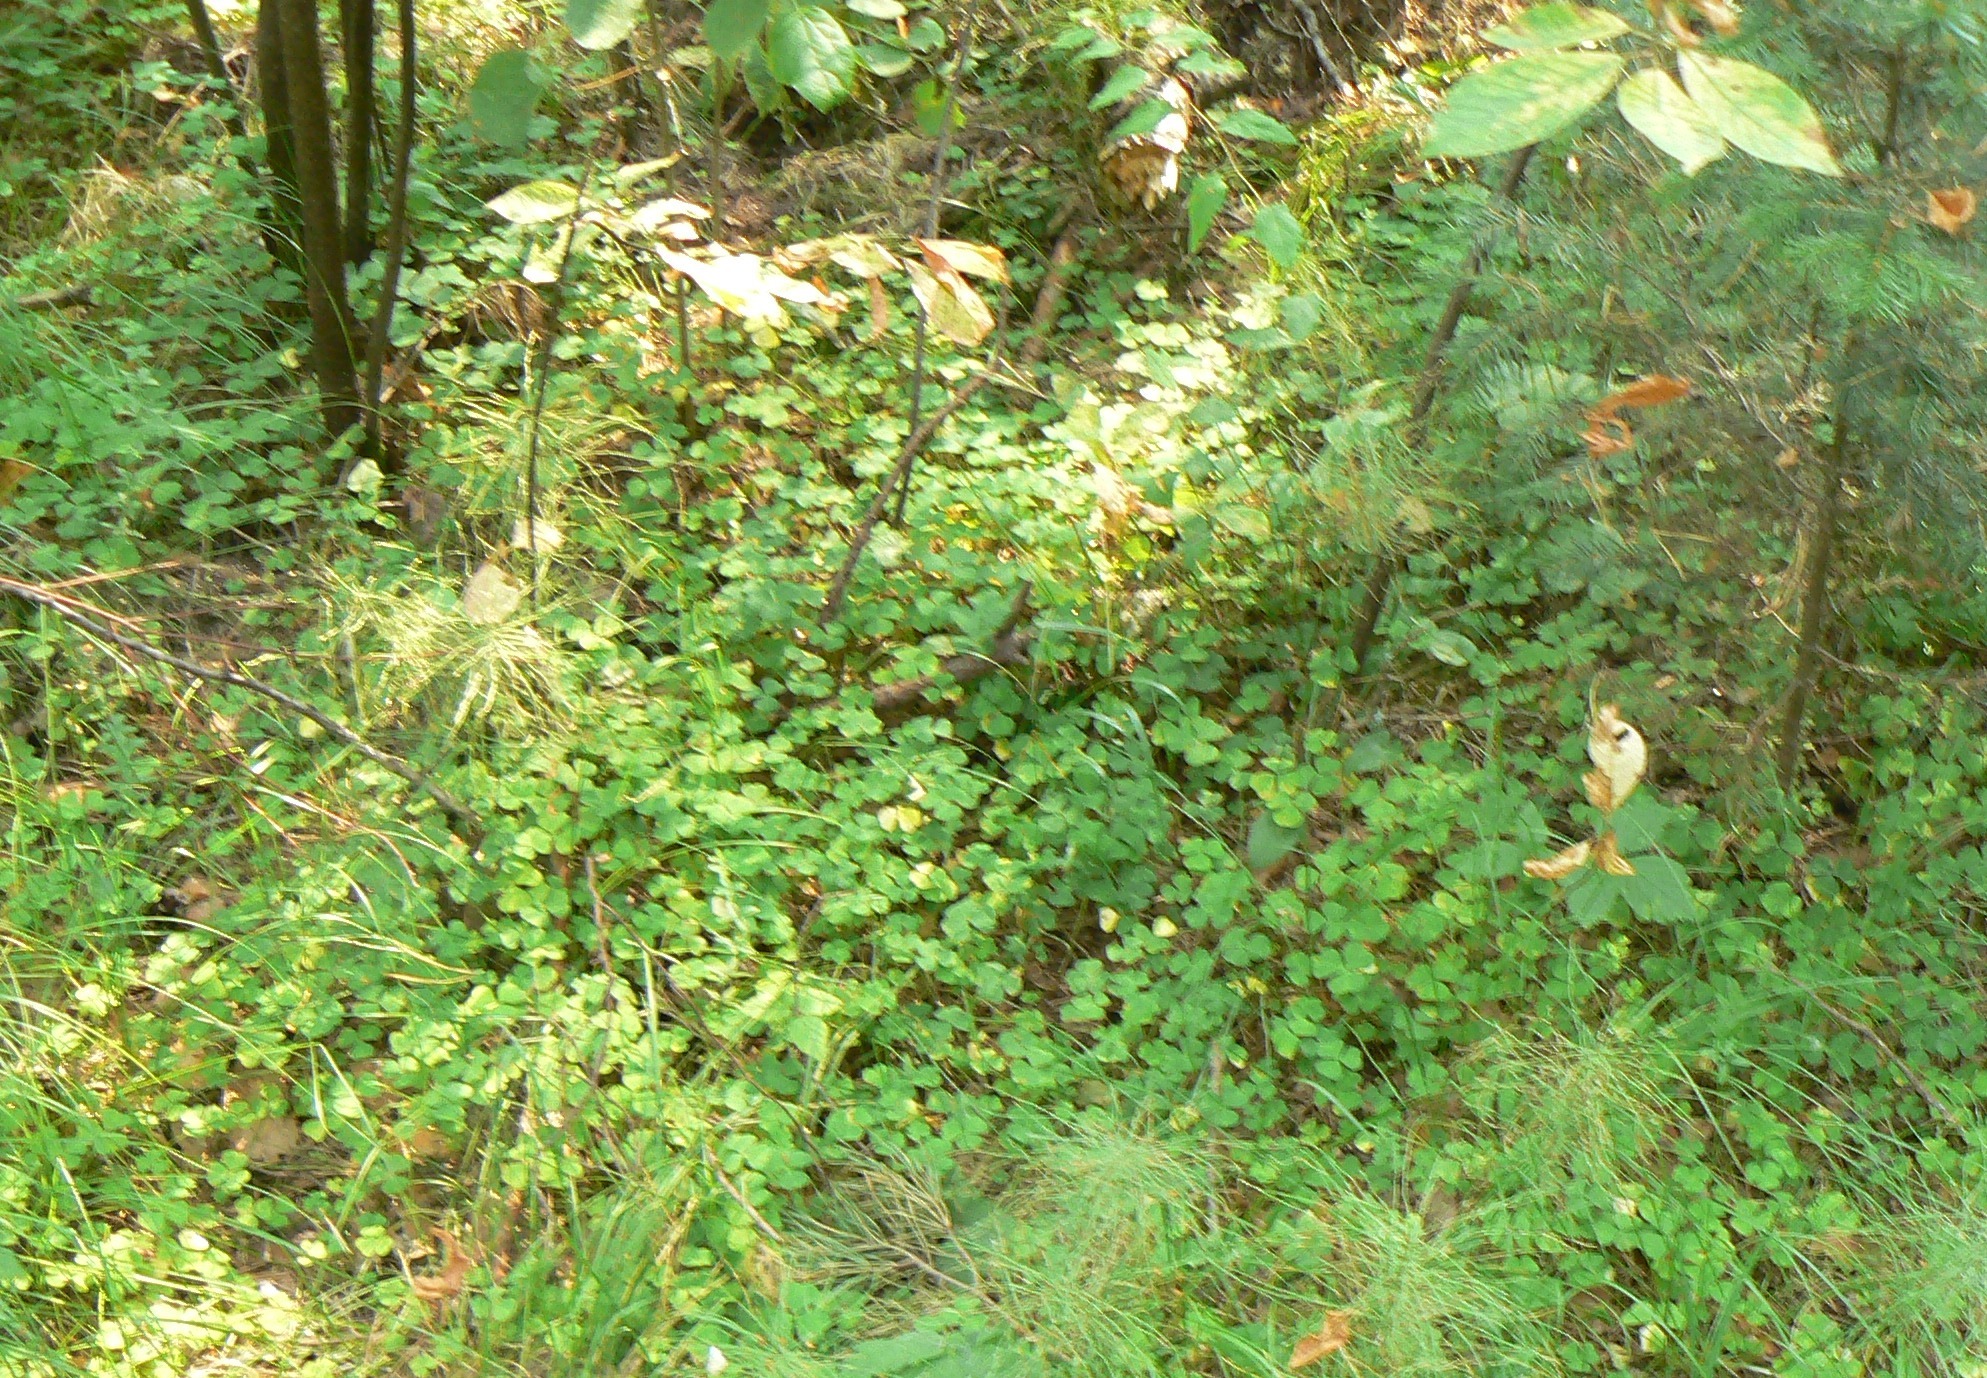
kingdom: Plantae
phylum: Tracheophyta
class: Magnoliopsida
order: Oxalidales
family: Oxalidaceae
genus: Oxalis
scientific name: Oxalis acetosella
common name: Wood-sorrel
